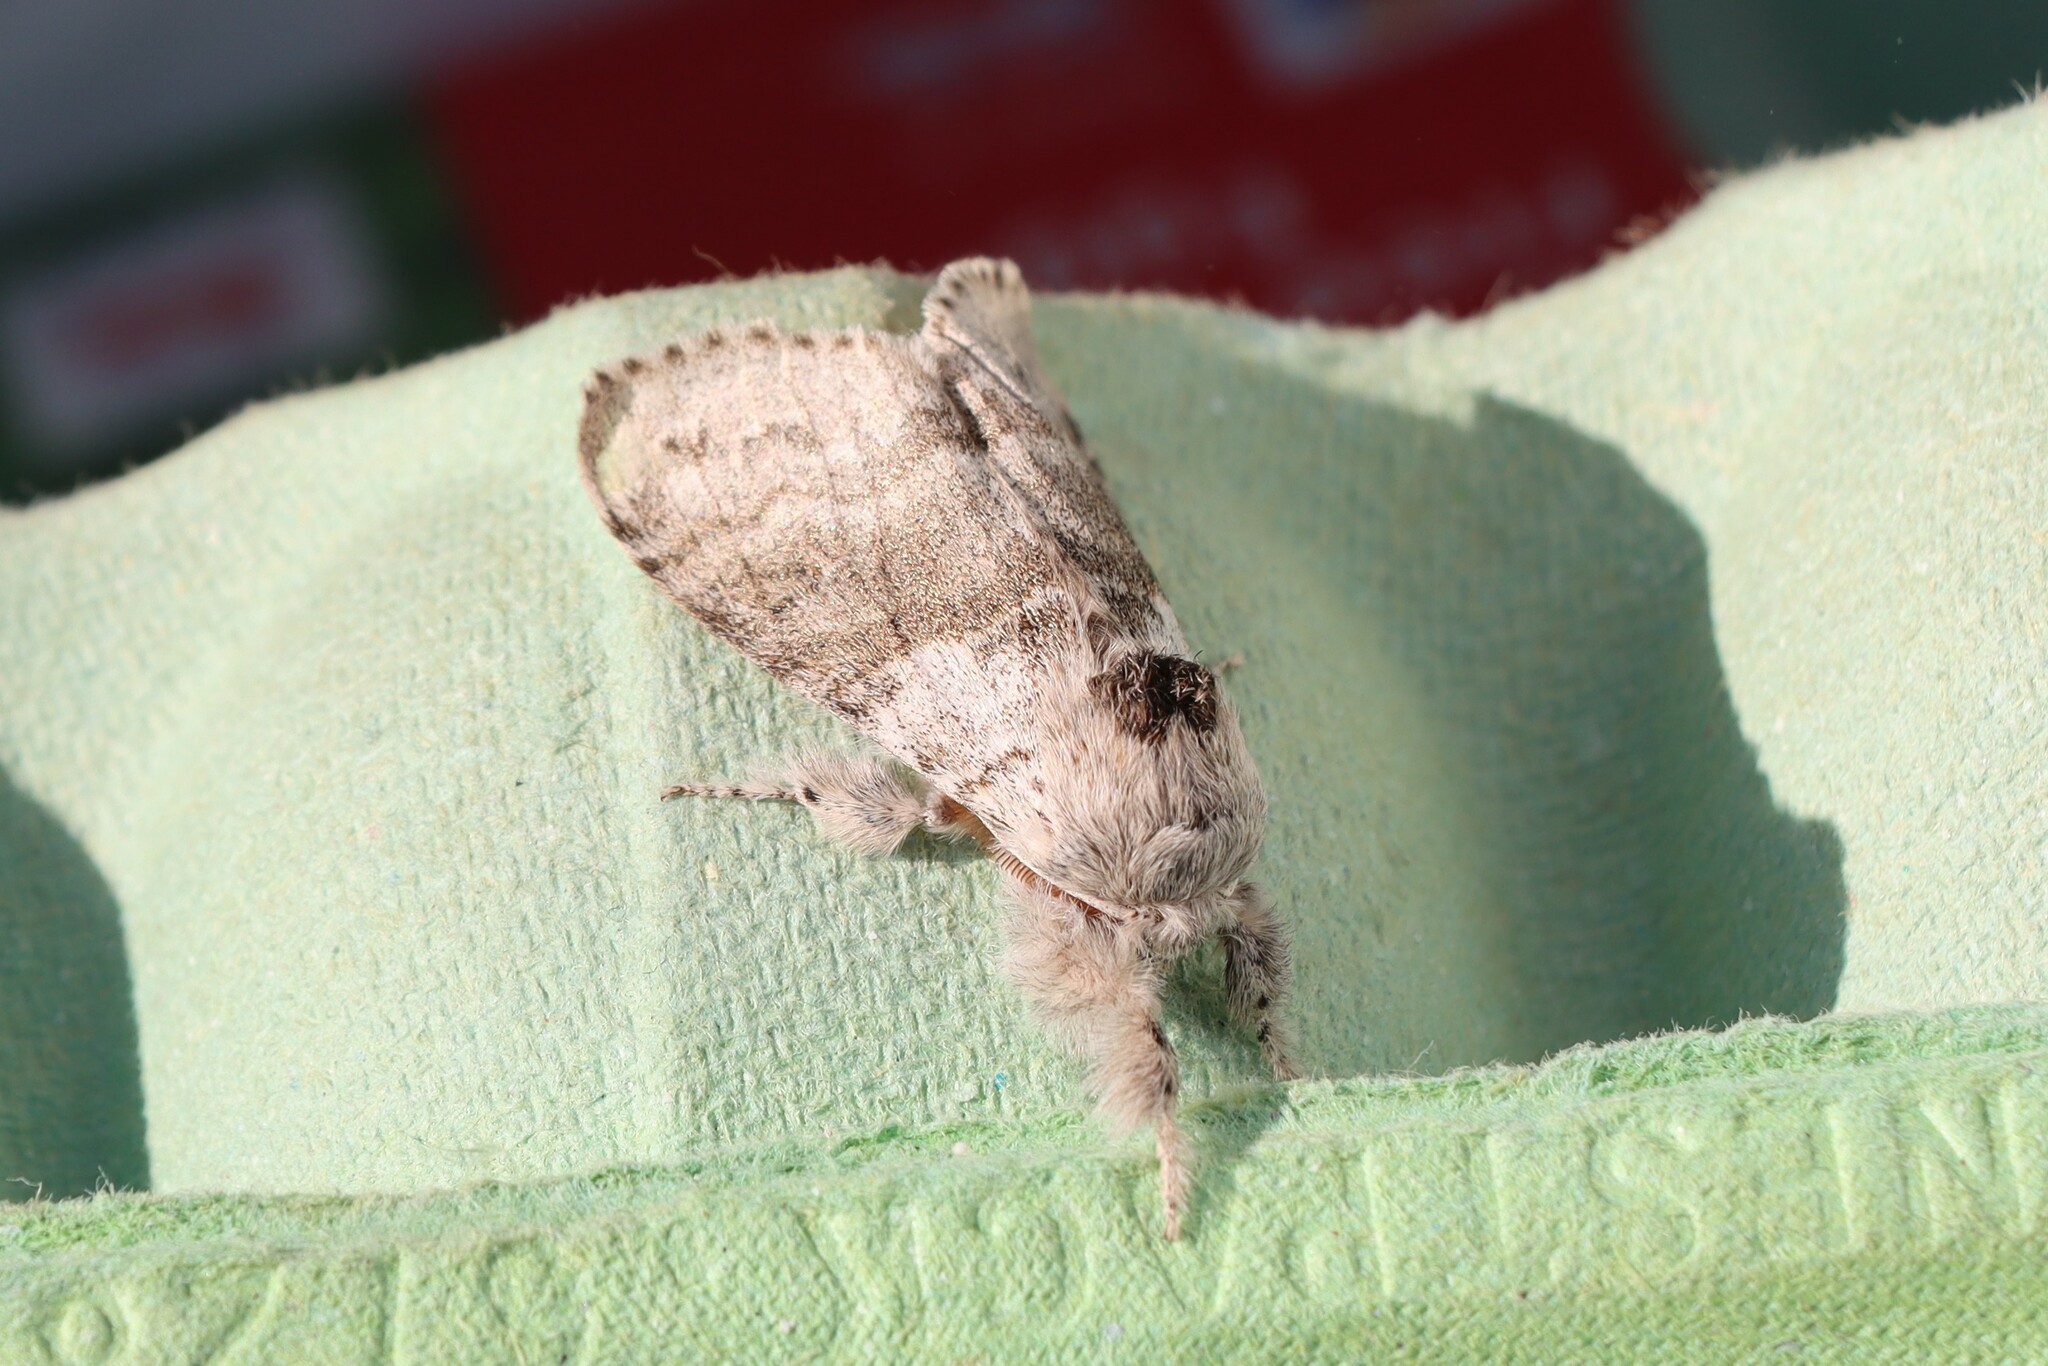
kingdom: Animalia
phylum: Arthropoda
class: Insecta
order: Lepidoptera
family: Erebidae
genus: Calliteara
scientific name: Calliteara pudibunda
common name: Pale tussock
